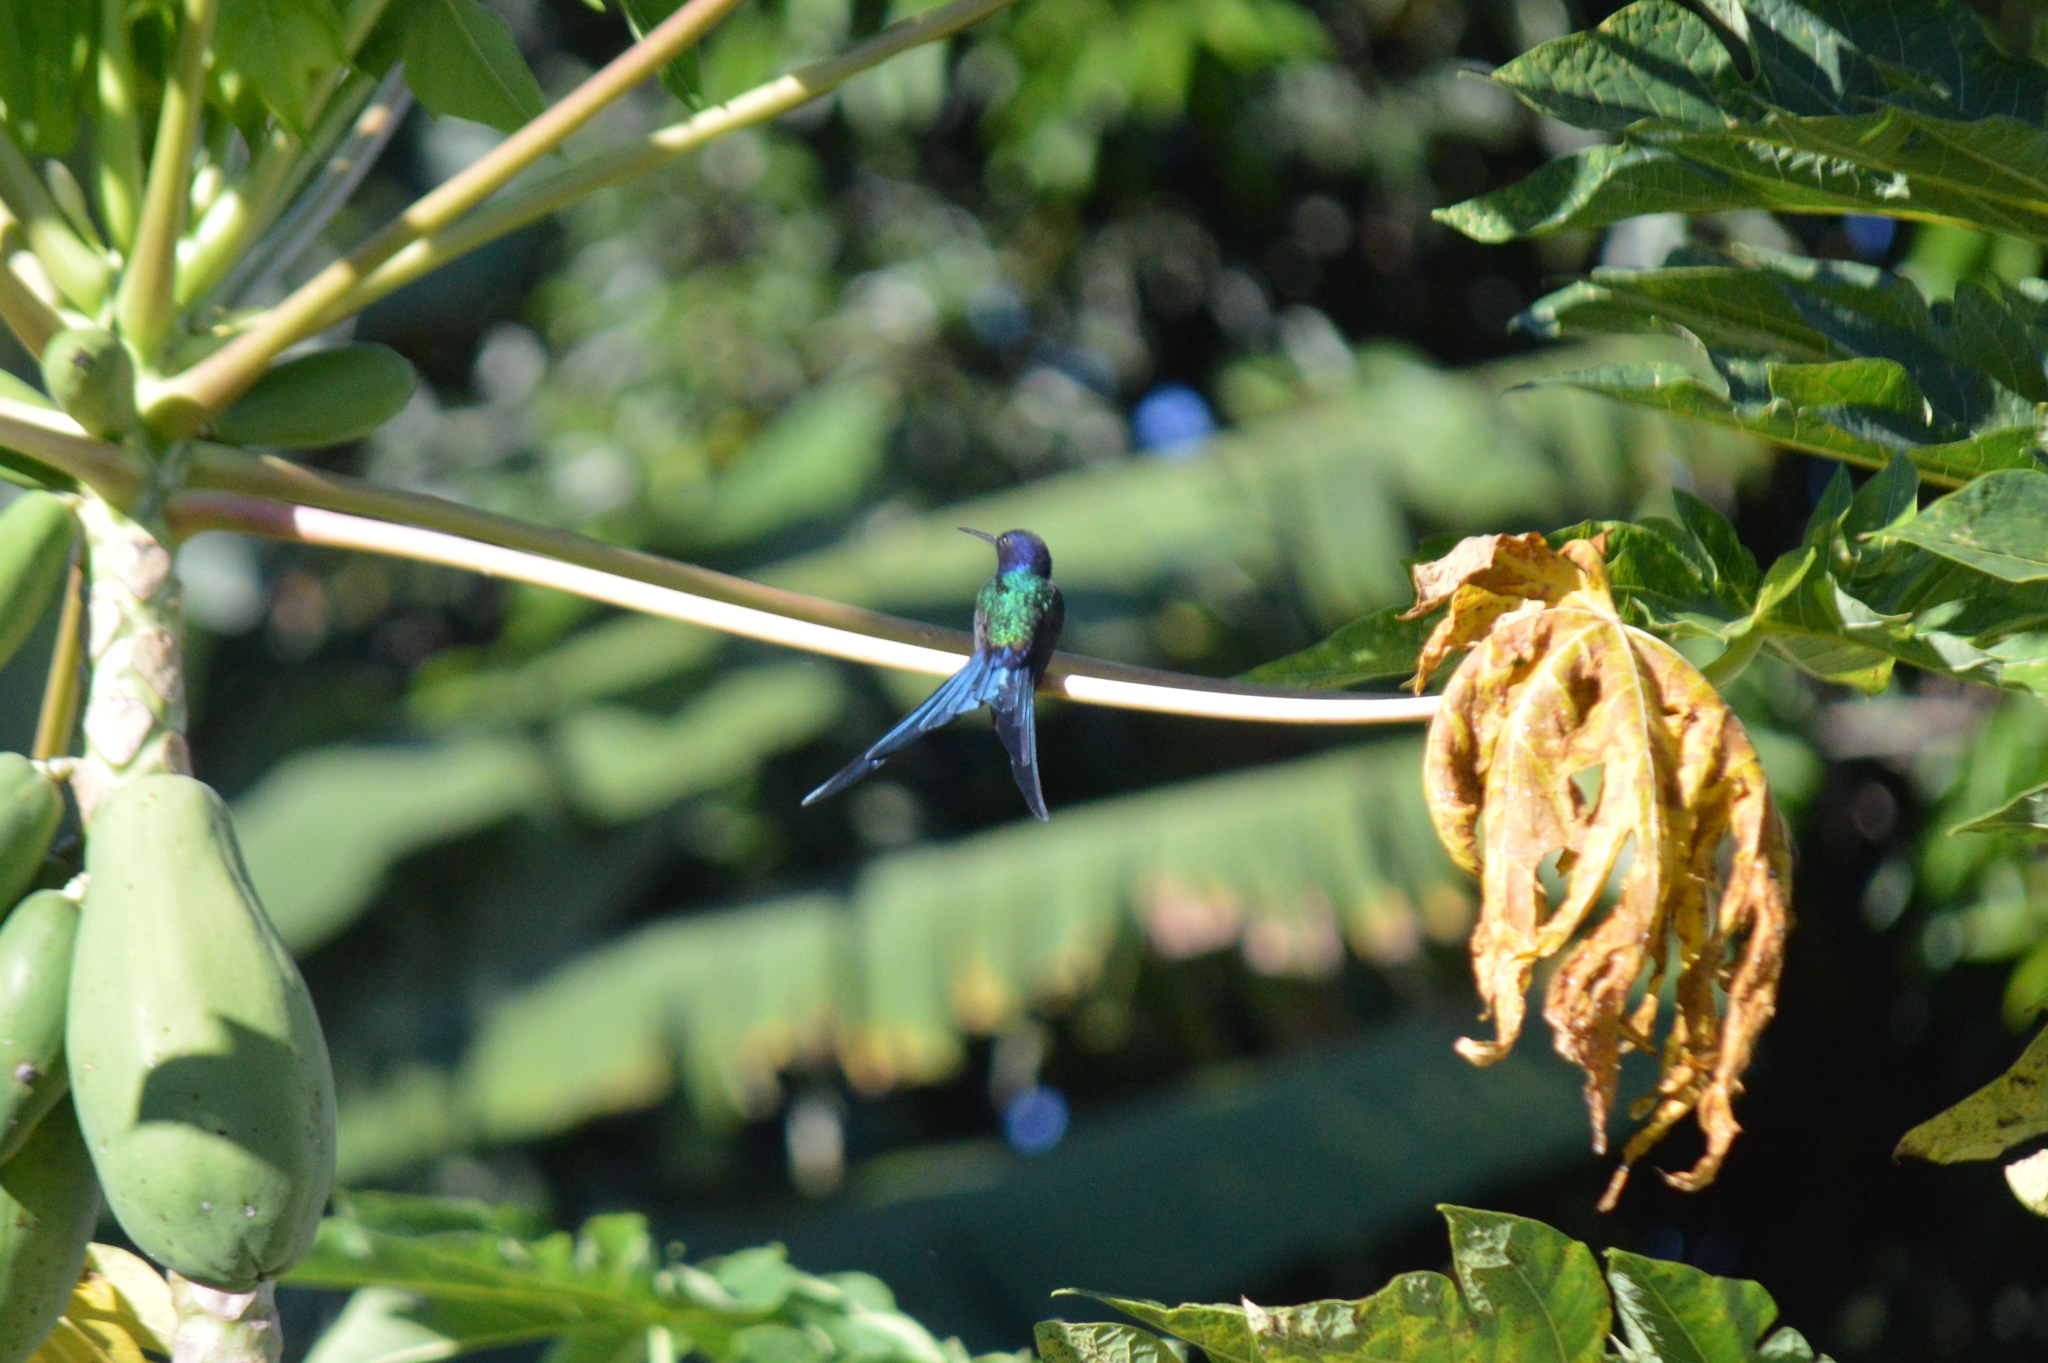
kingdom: Animalia
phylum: Chordata
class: Aves
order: Apodiformes
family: Trochilidae
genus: Eupetomena
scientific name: Eupetomena macroura
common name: Swallow-tailed hummingbird
